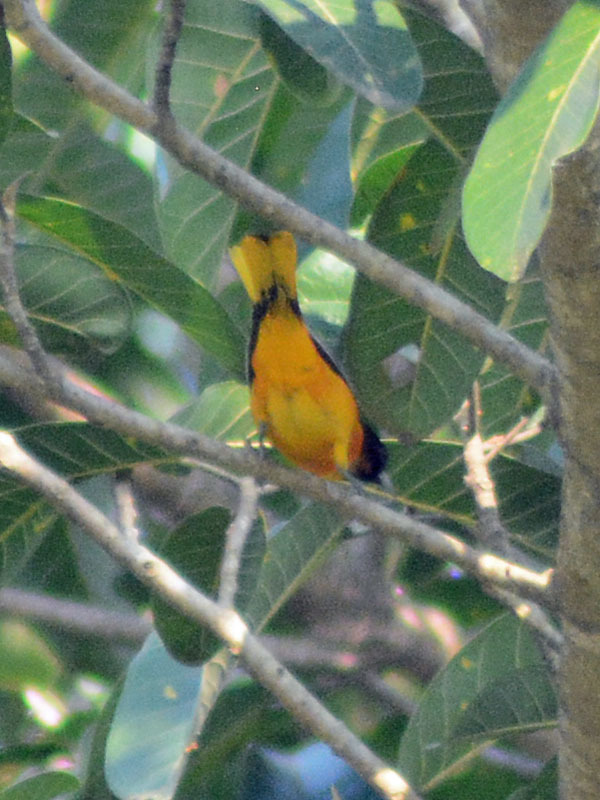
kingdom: Animalia
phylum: Chordata
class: Aves
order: Passeriformes
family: Icteridae
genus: Icterus
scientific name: Icterus galbula
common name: Baltimore oriole
